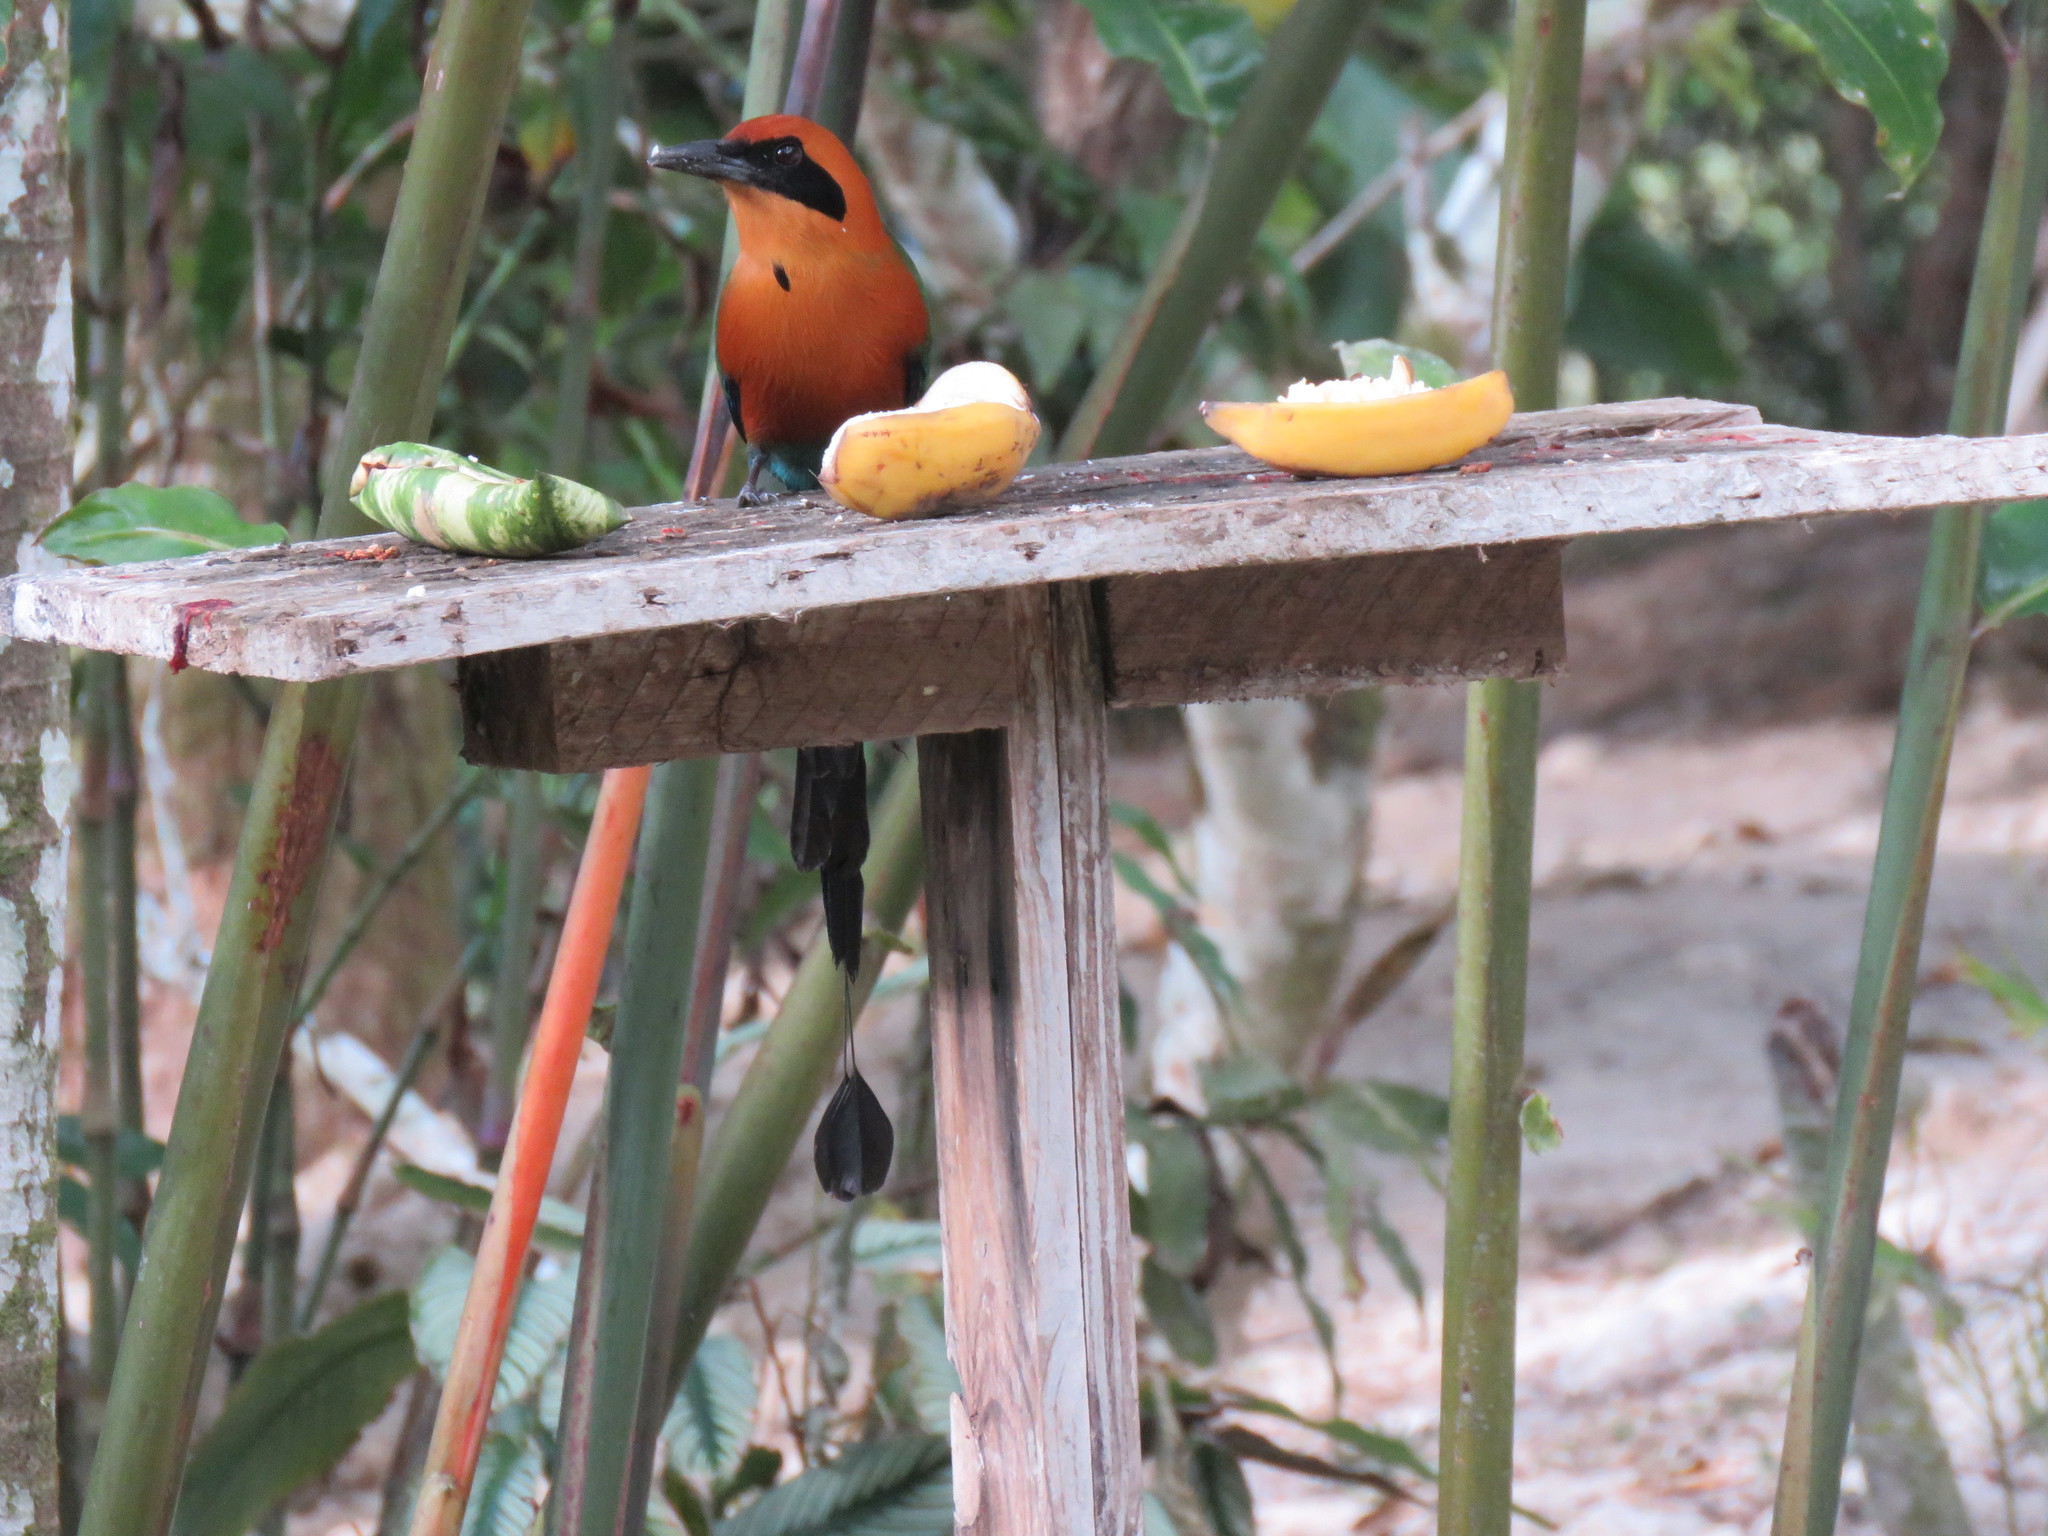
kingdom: Animalia
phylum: Chordata
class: Aves
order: Coraciiformes
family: Momotidae
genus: Baryphthengus
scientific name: Baryphthengus martii
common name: Rufous motmot
